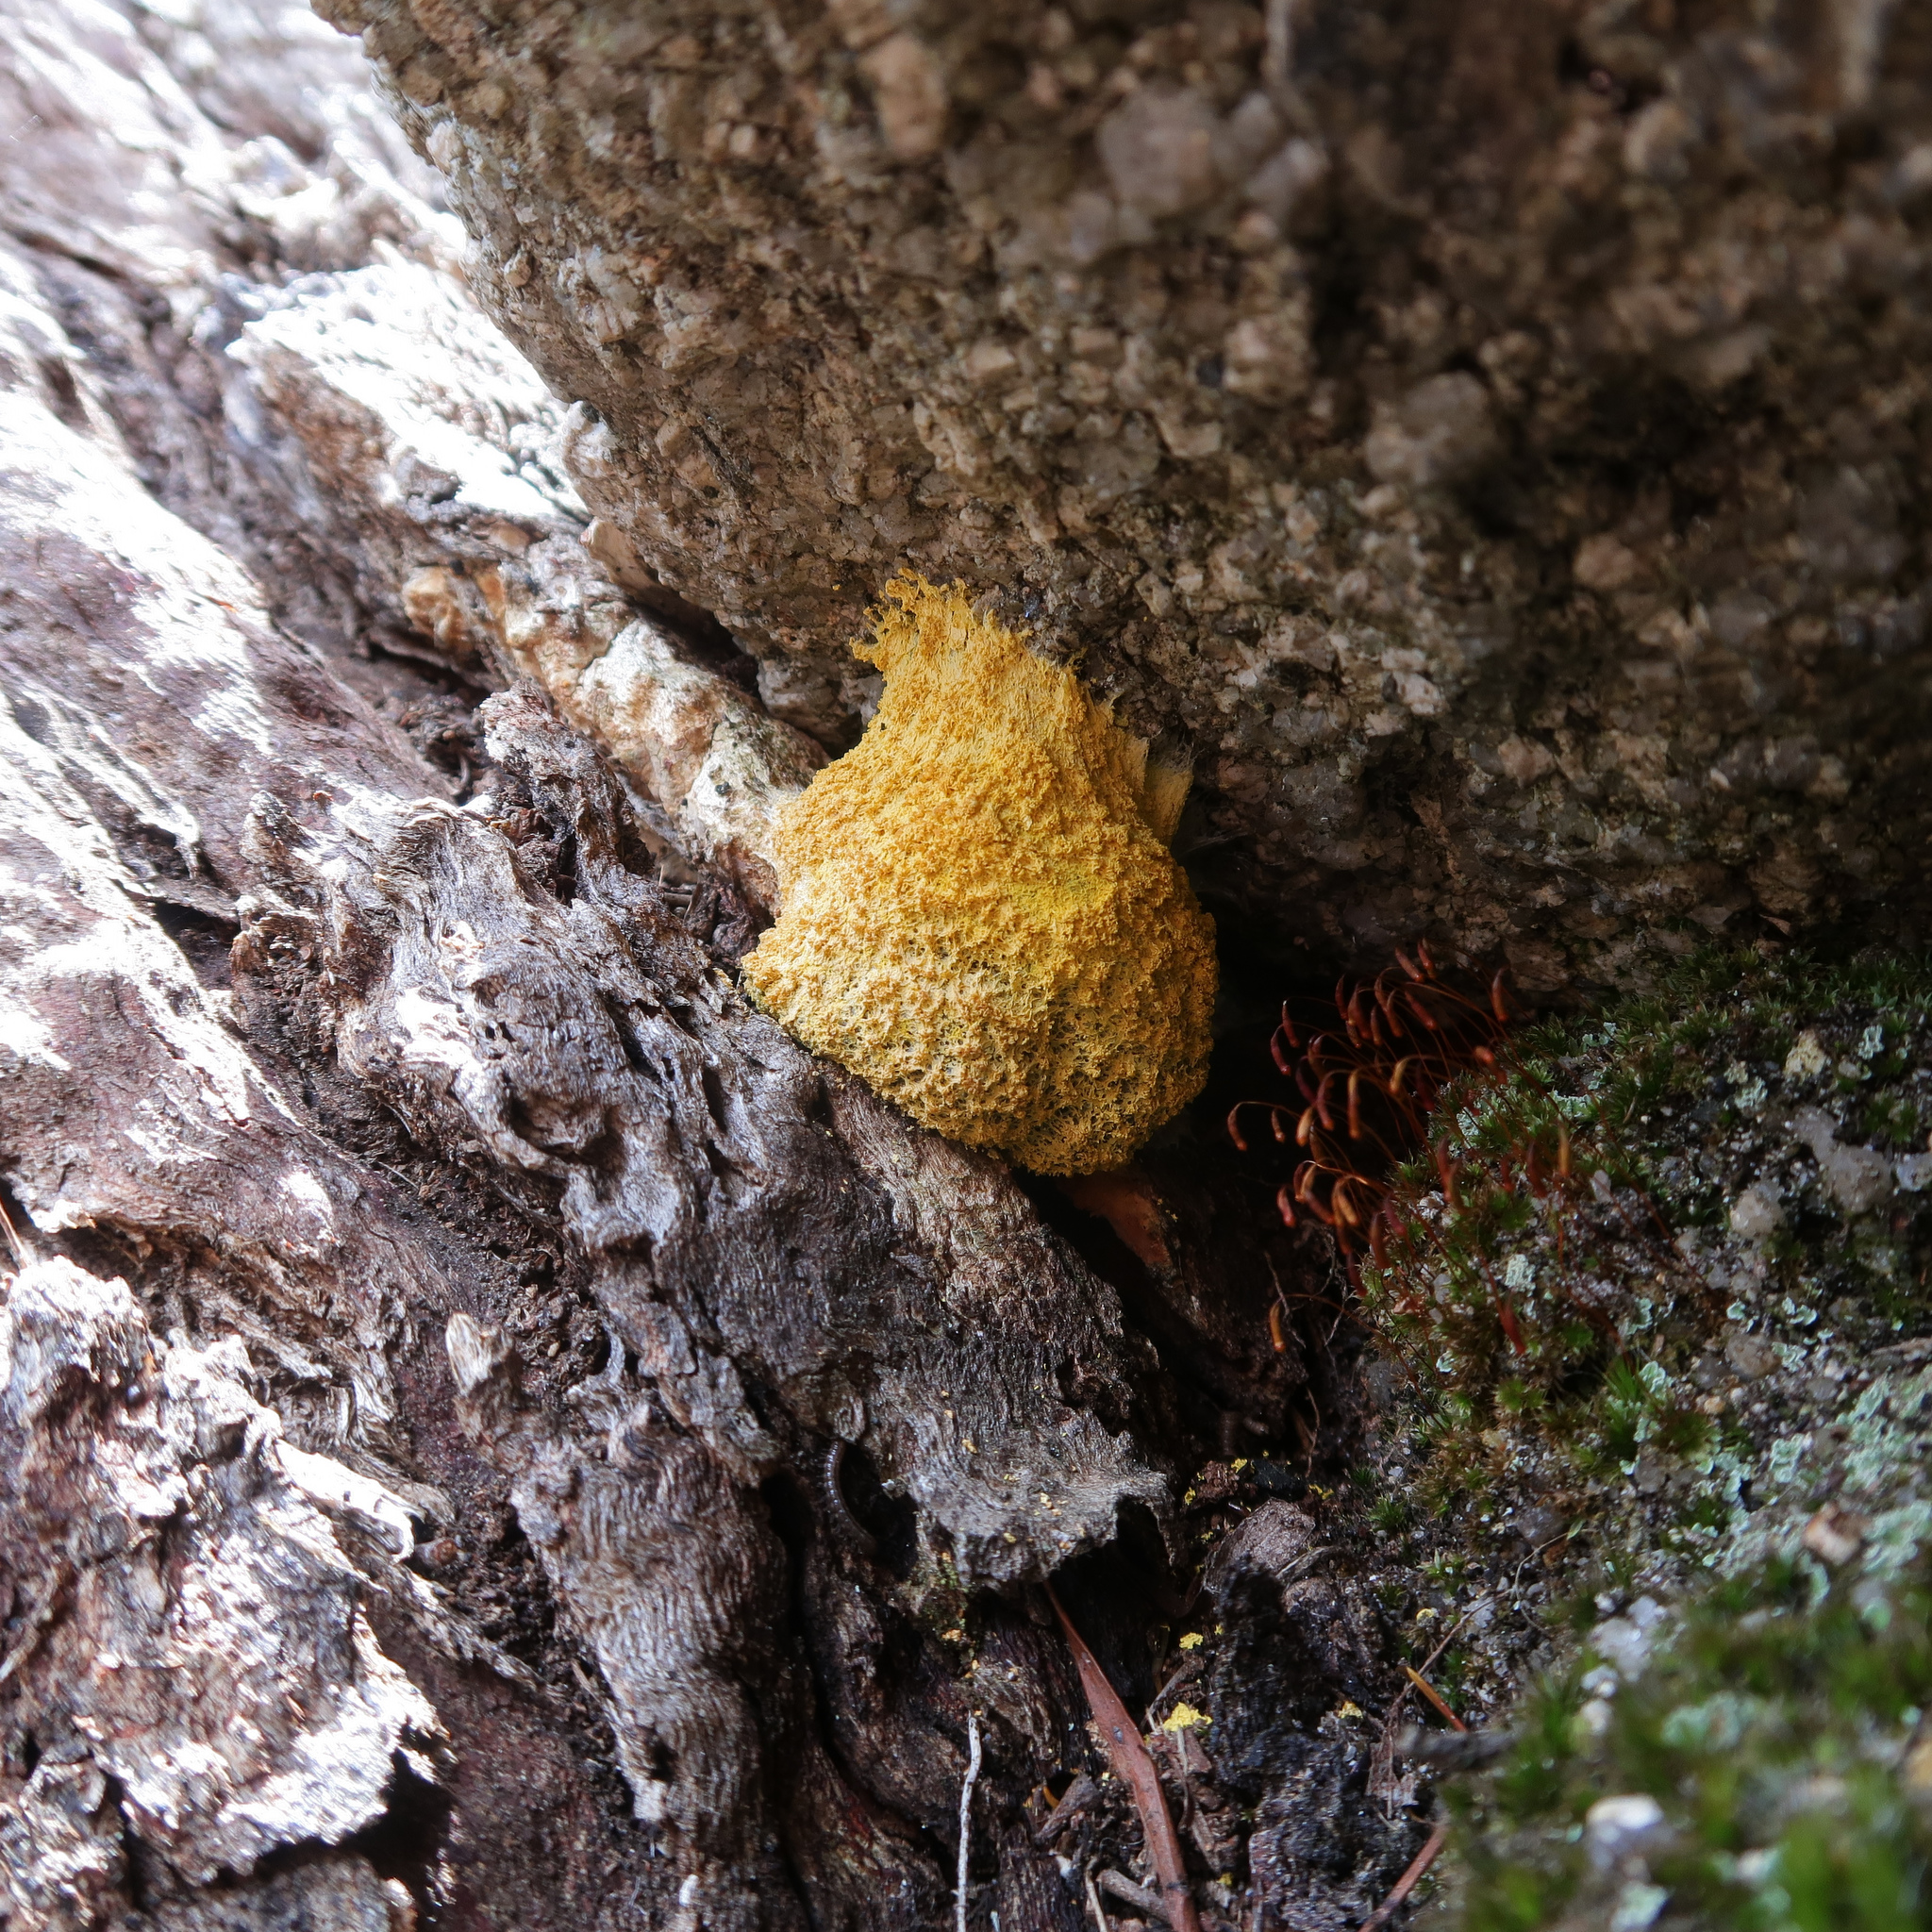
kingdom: Protozoa
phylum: Mycetozoa
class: Myxomycetes
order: Physarales
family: Physaraceae
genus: Fuligo
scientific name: Fuligo septica
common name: Dog vomit slime mold
